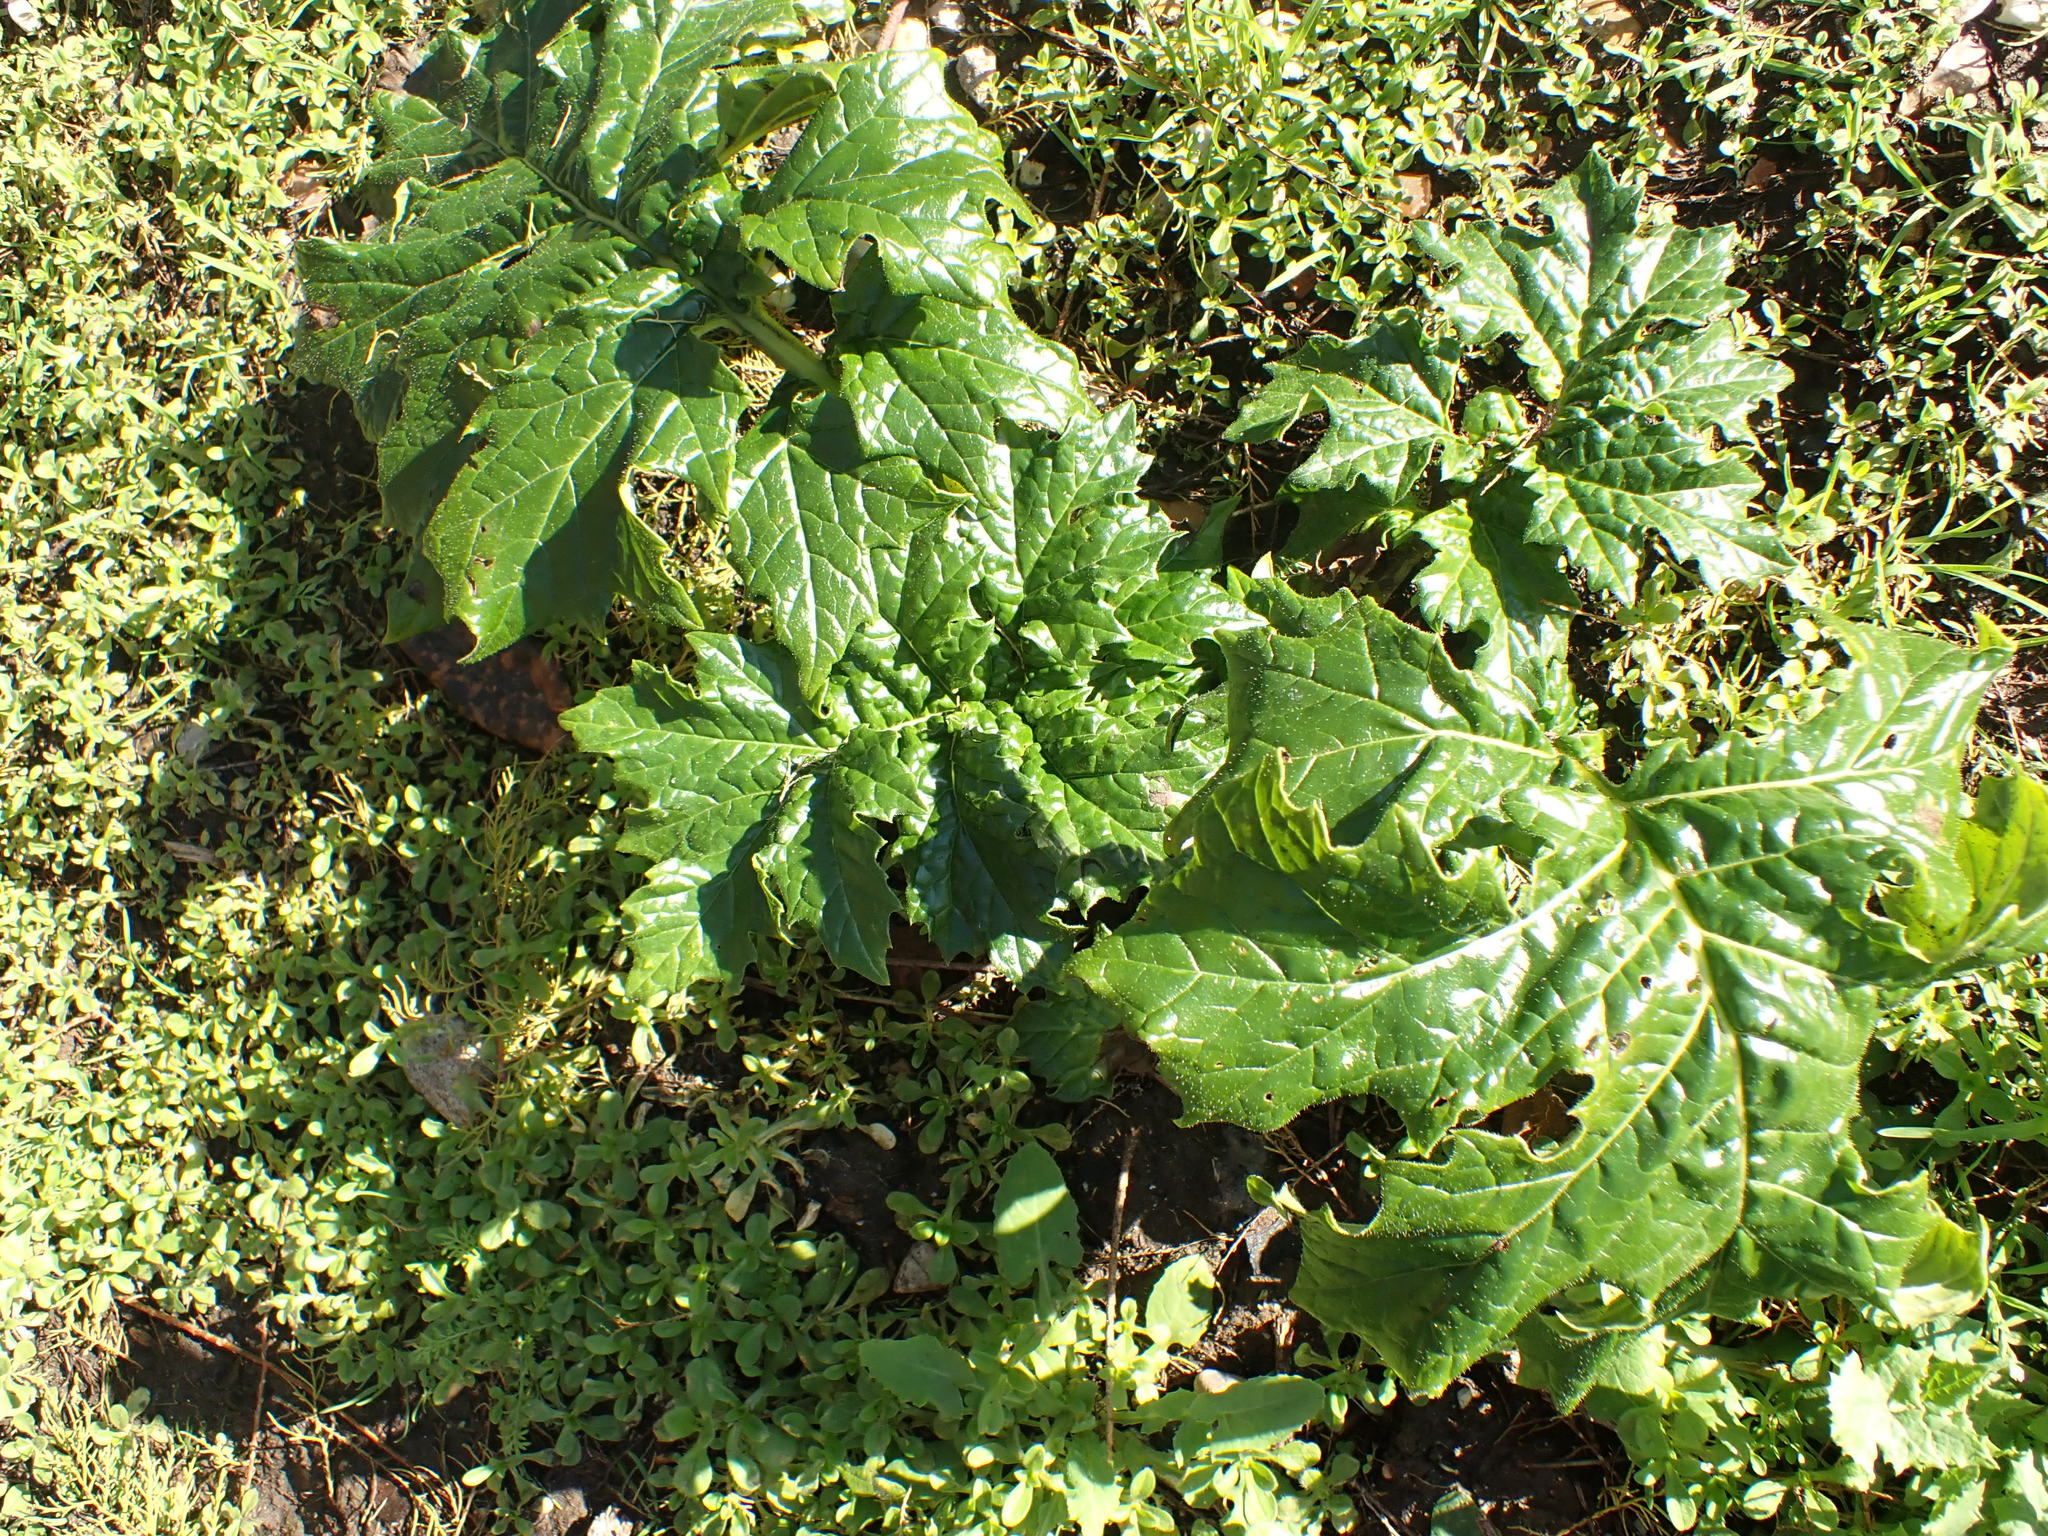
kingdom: Plantae
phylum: Tracheophyta
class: Magnoliopsida
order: Lamiales
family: Acanthaceae
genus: Acanthus
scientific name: Acanthus mollis
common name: Bear's-breech
